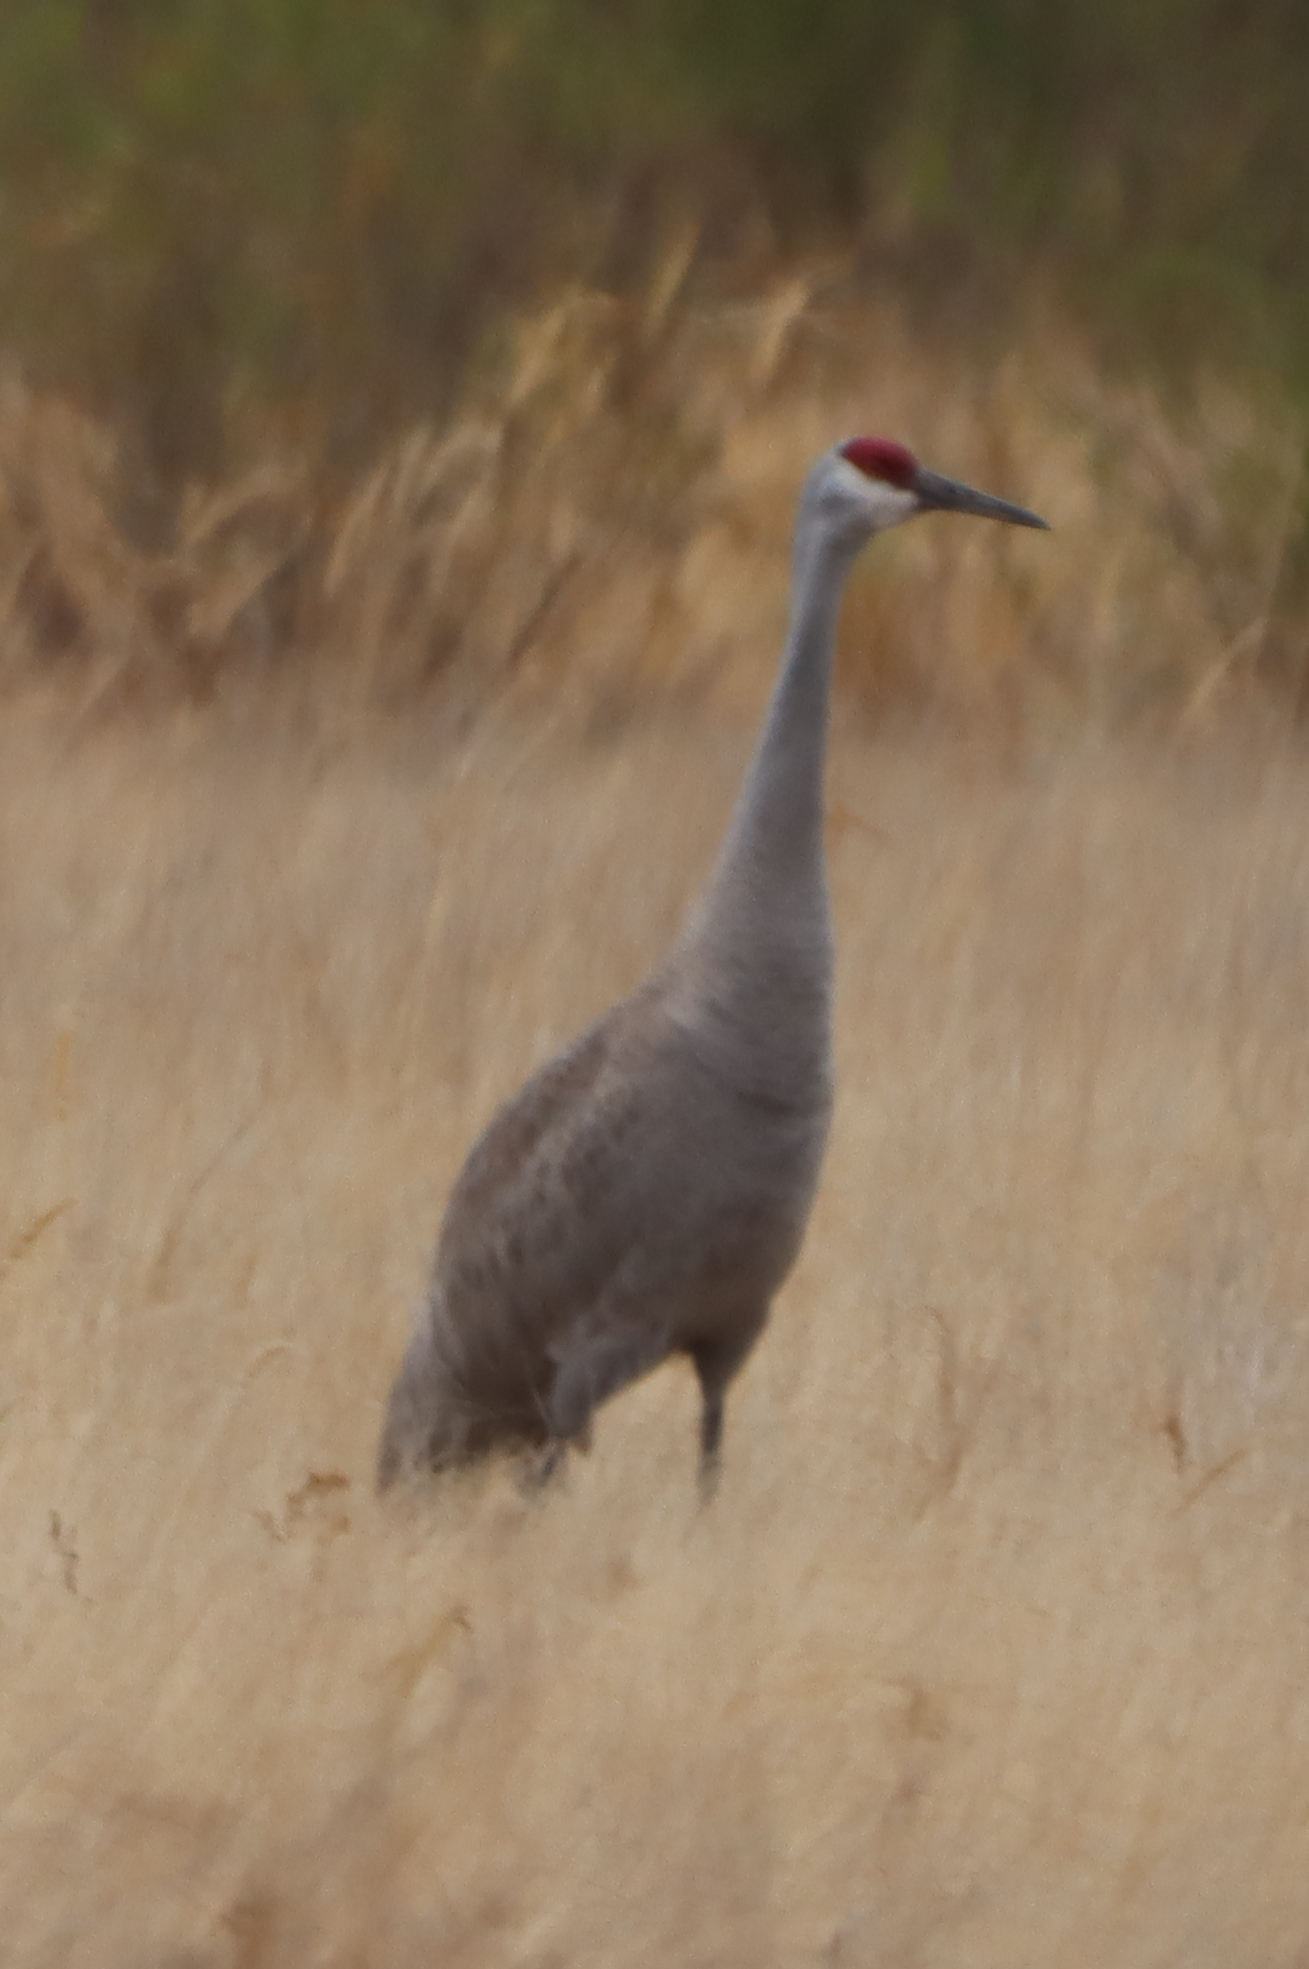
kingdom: Animalia
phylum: Chordata
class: Aves
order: Gruiformes
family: Gruidae
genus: Grus
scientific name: Grus canadensis
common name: Sandhill crane
